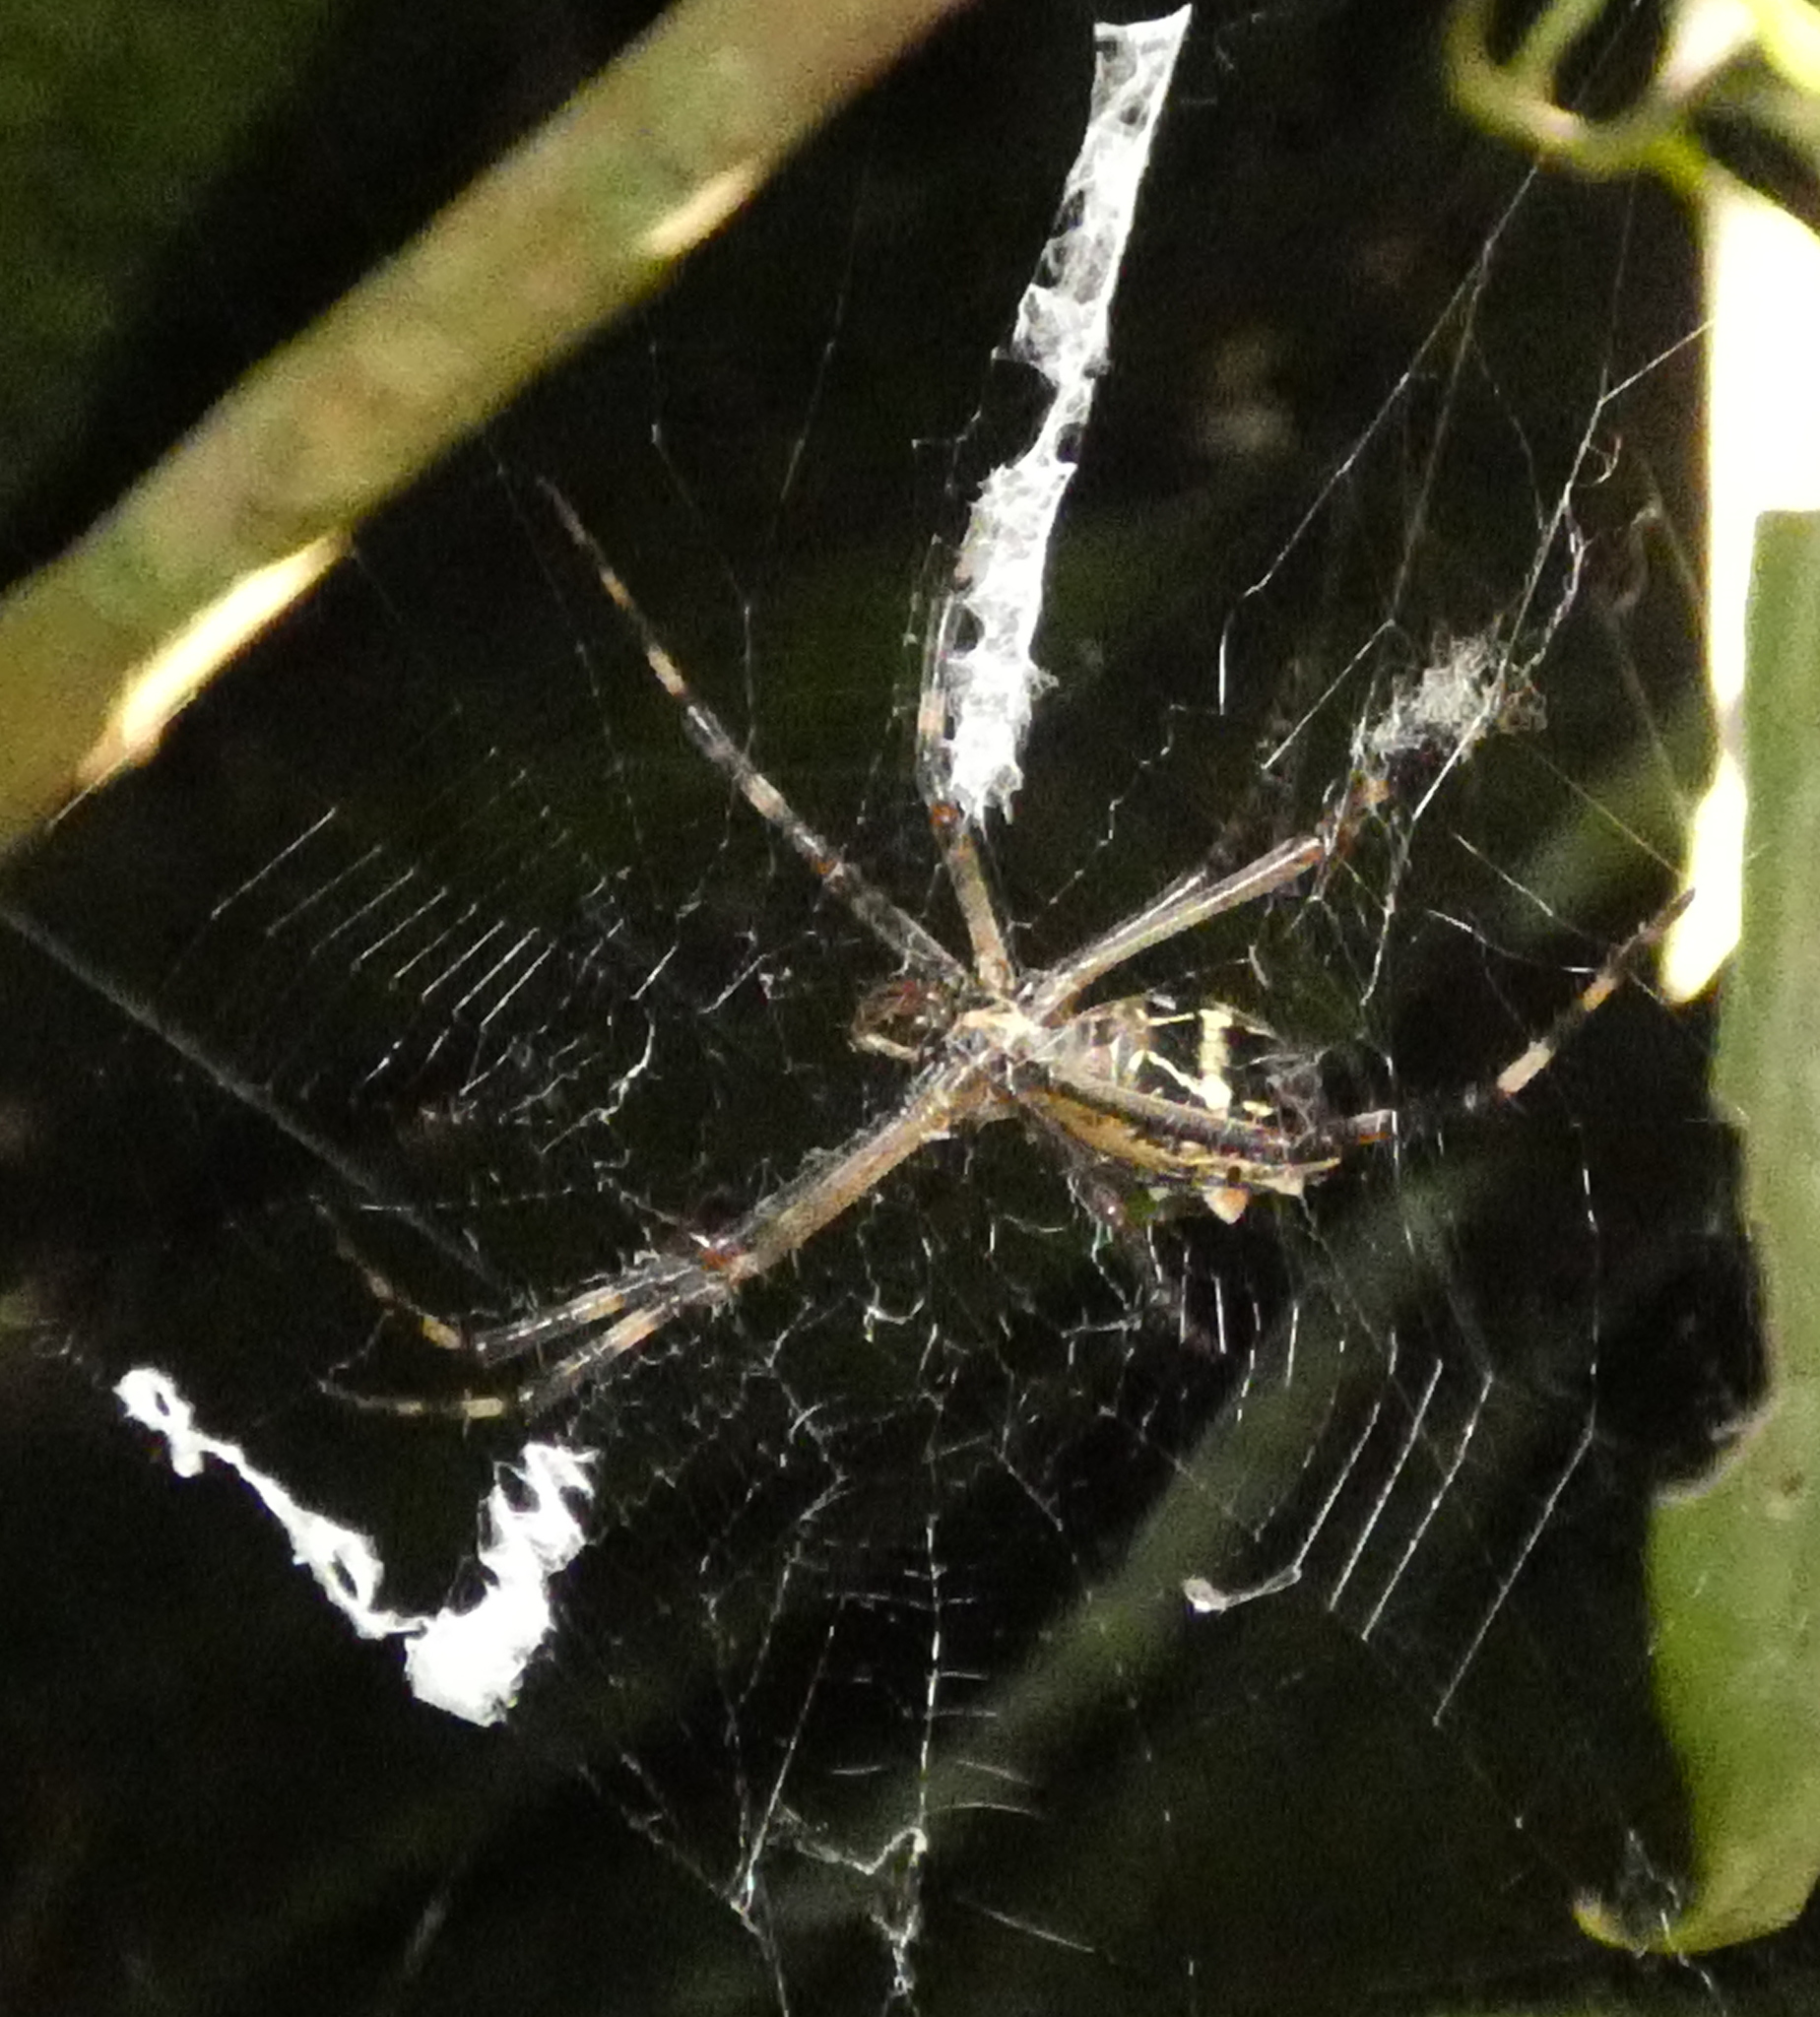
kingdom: Animalia
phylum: Arthropoda
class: Arachnida
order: Araneae
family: Araneidae
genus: Argiope
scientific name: Argiope argentata
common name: Orb weavers
